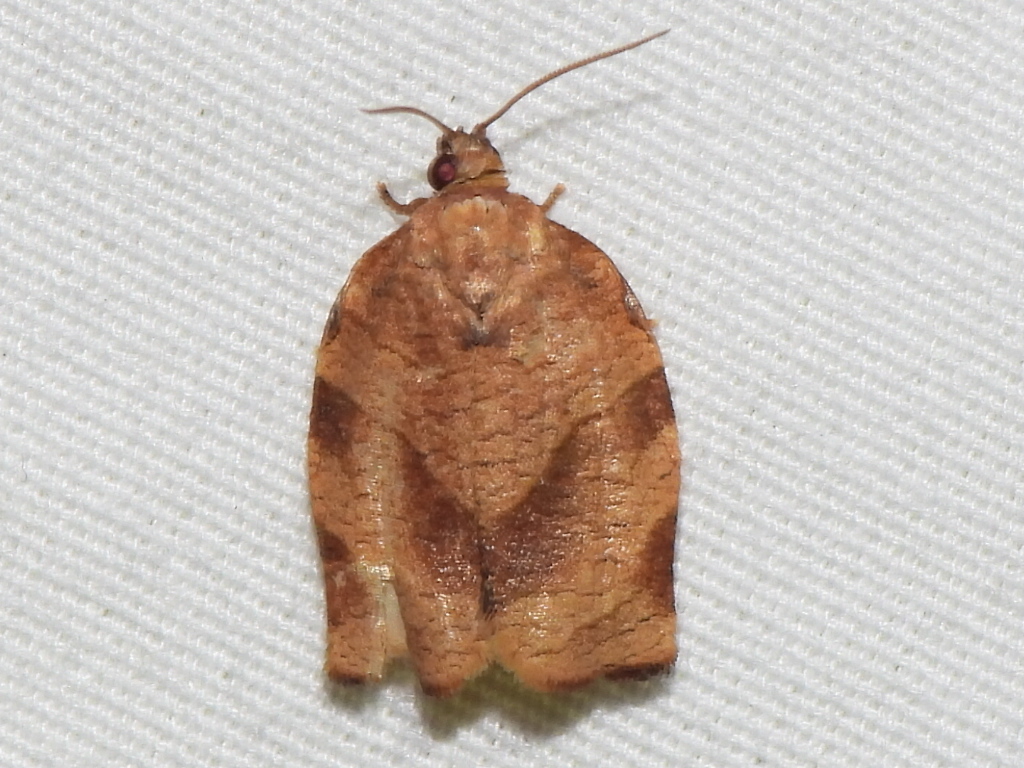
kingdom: Animalia
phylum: Arthropoda
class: Insecta
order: Lepidoptera
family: Tortricidae
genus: Choristoneura
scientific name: Choristoneura rosaceana
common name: Oblique-banded leafroller moth
